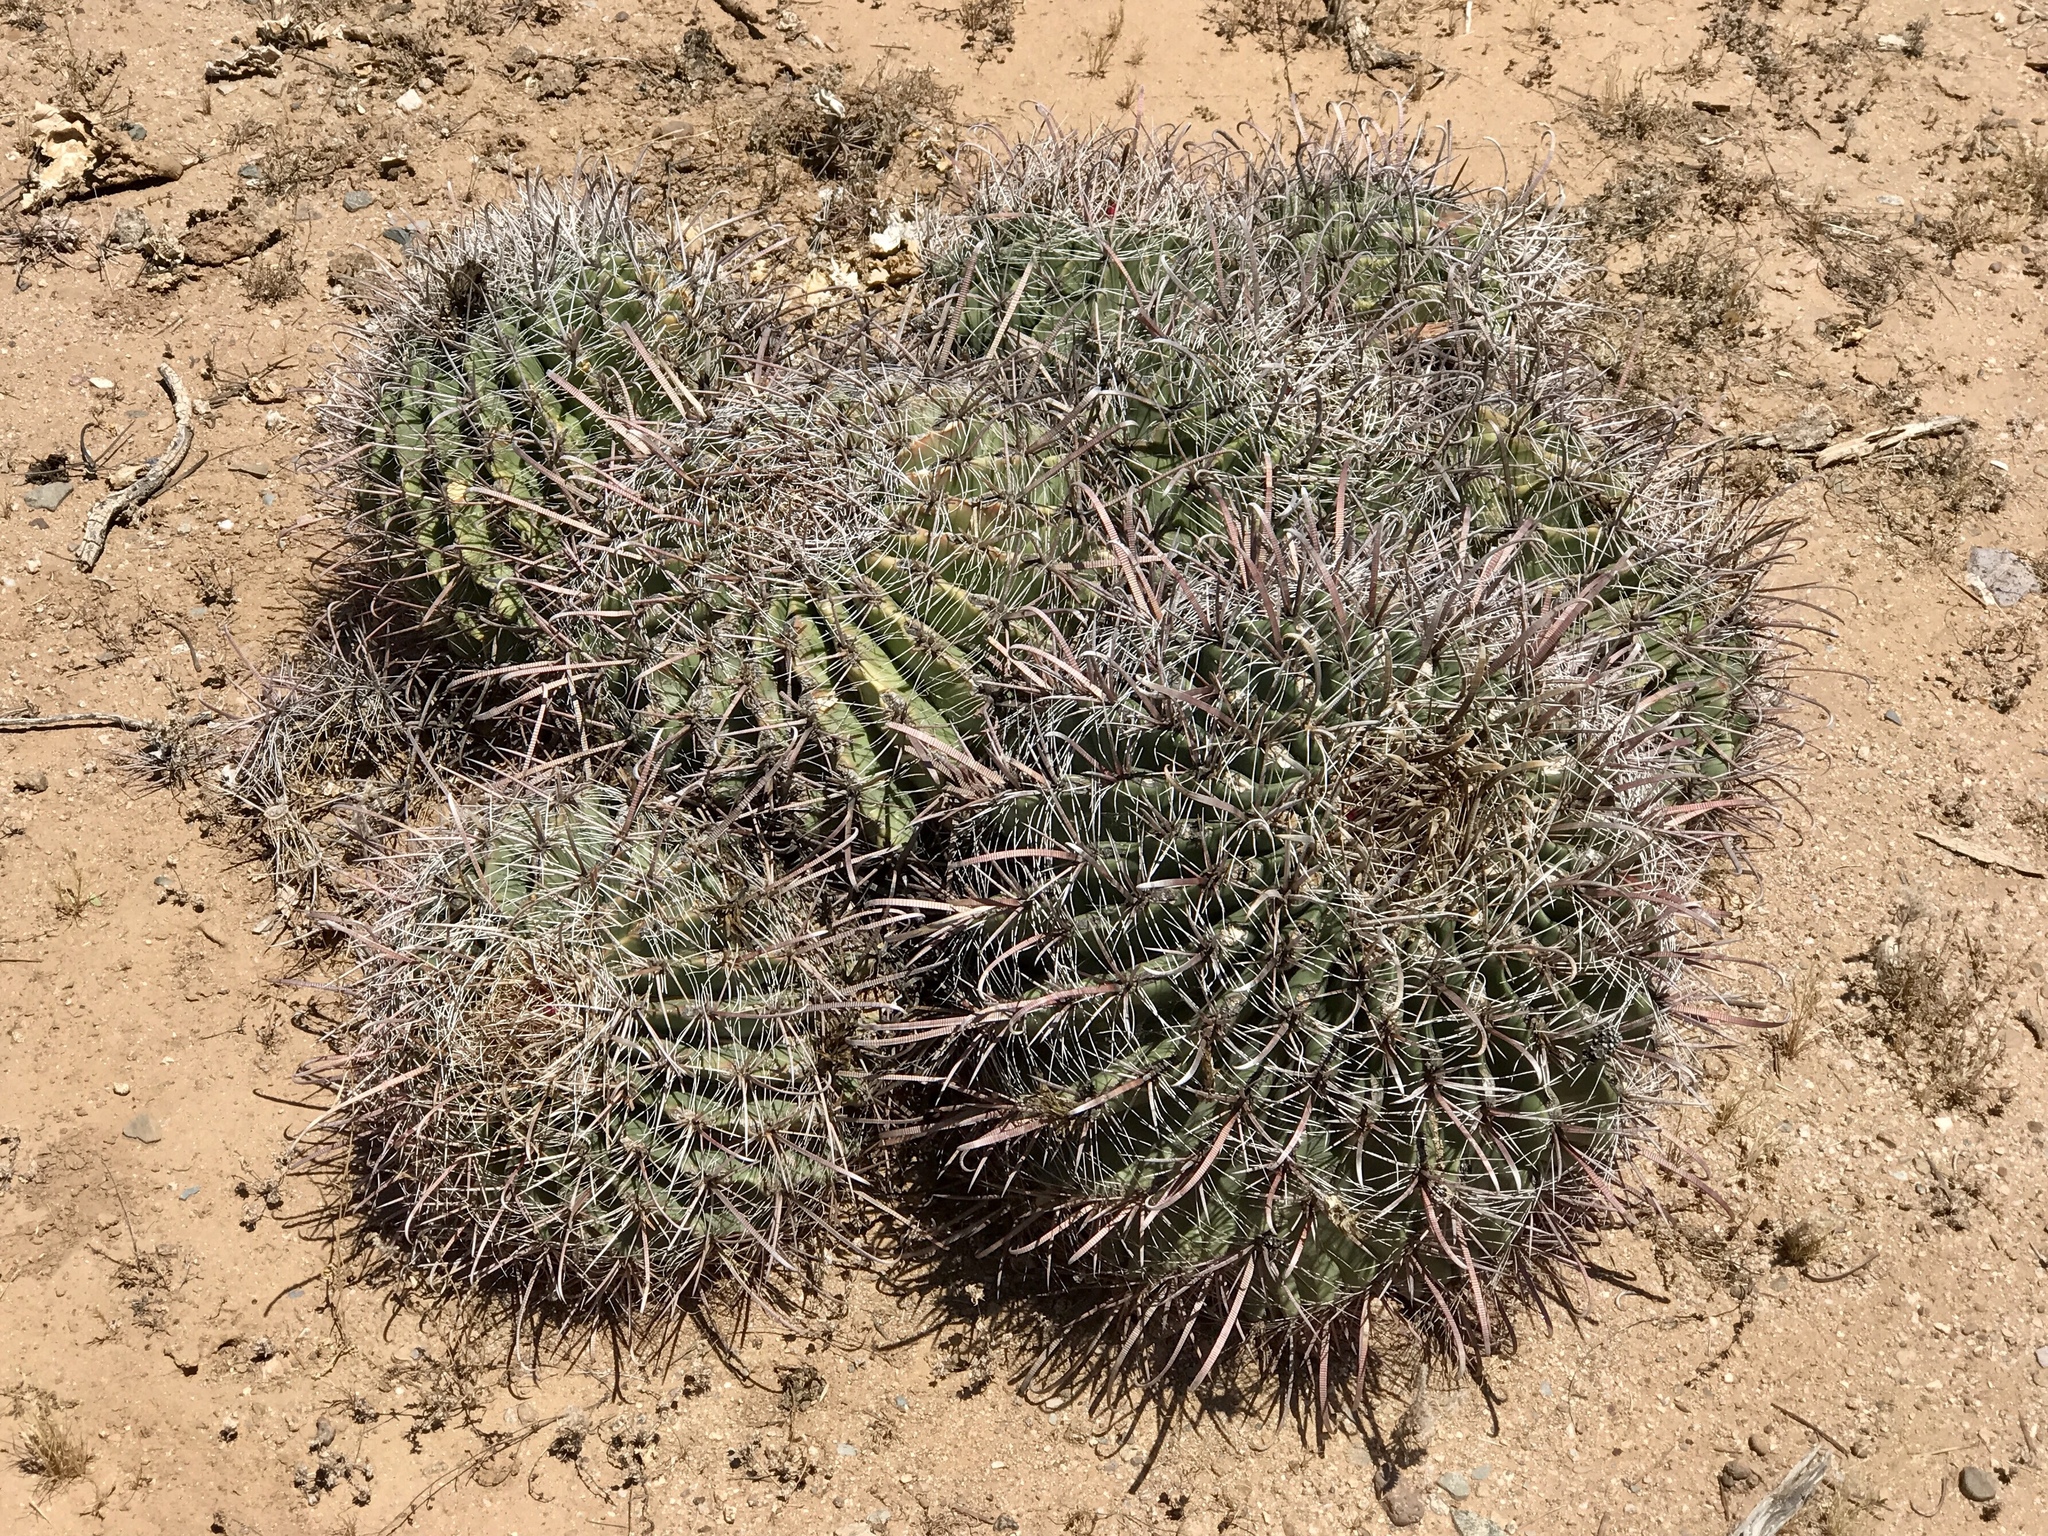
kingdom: Plantae
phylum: Tracheophyta
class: Magnoliopsida
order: Caryophyllales
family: Cactaceae
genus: Ferocactus
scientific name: Ferocactus wislizeni
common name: Candy barrel cactus
